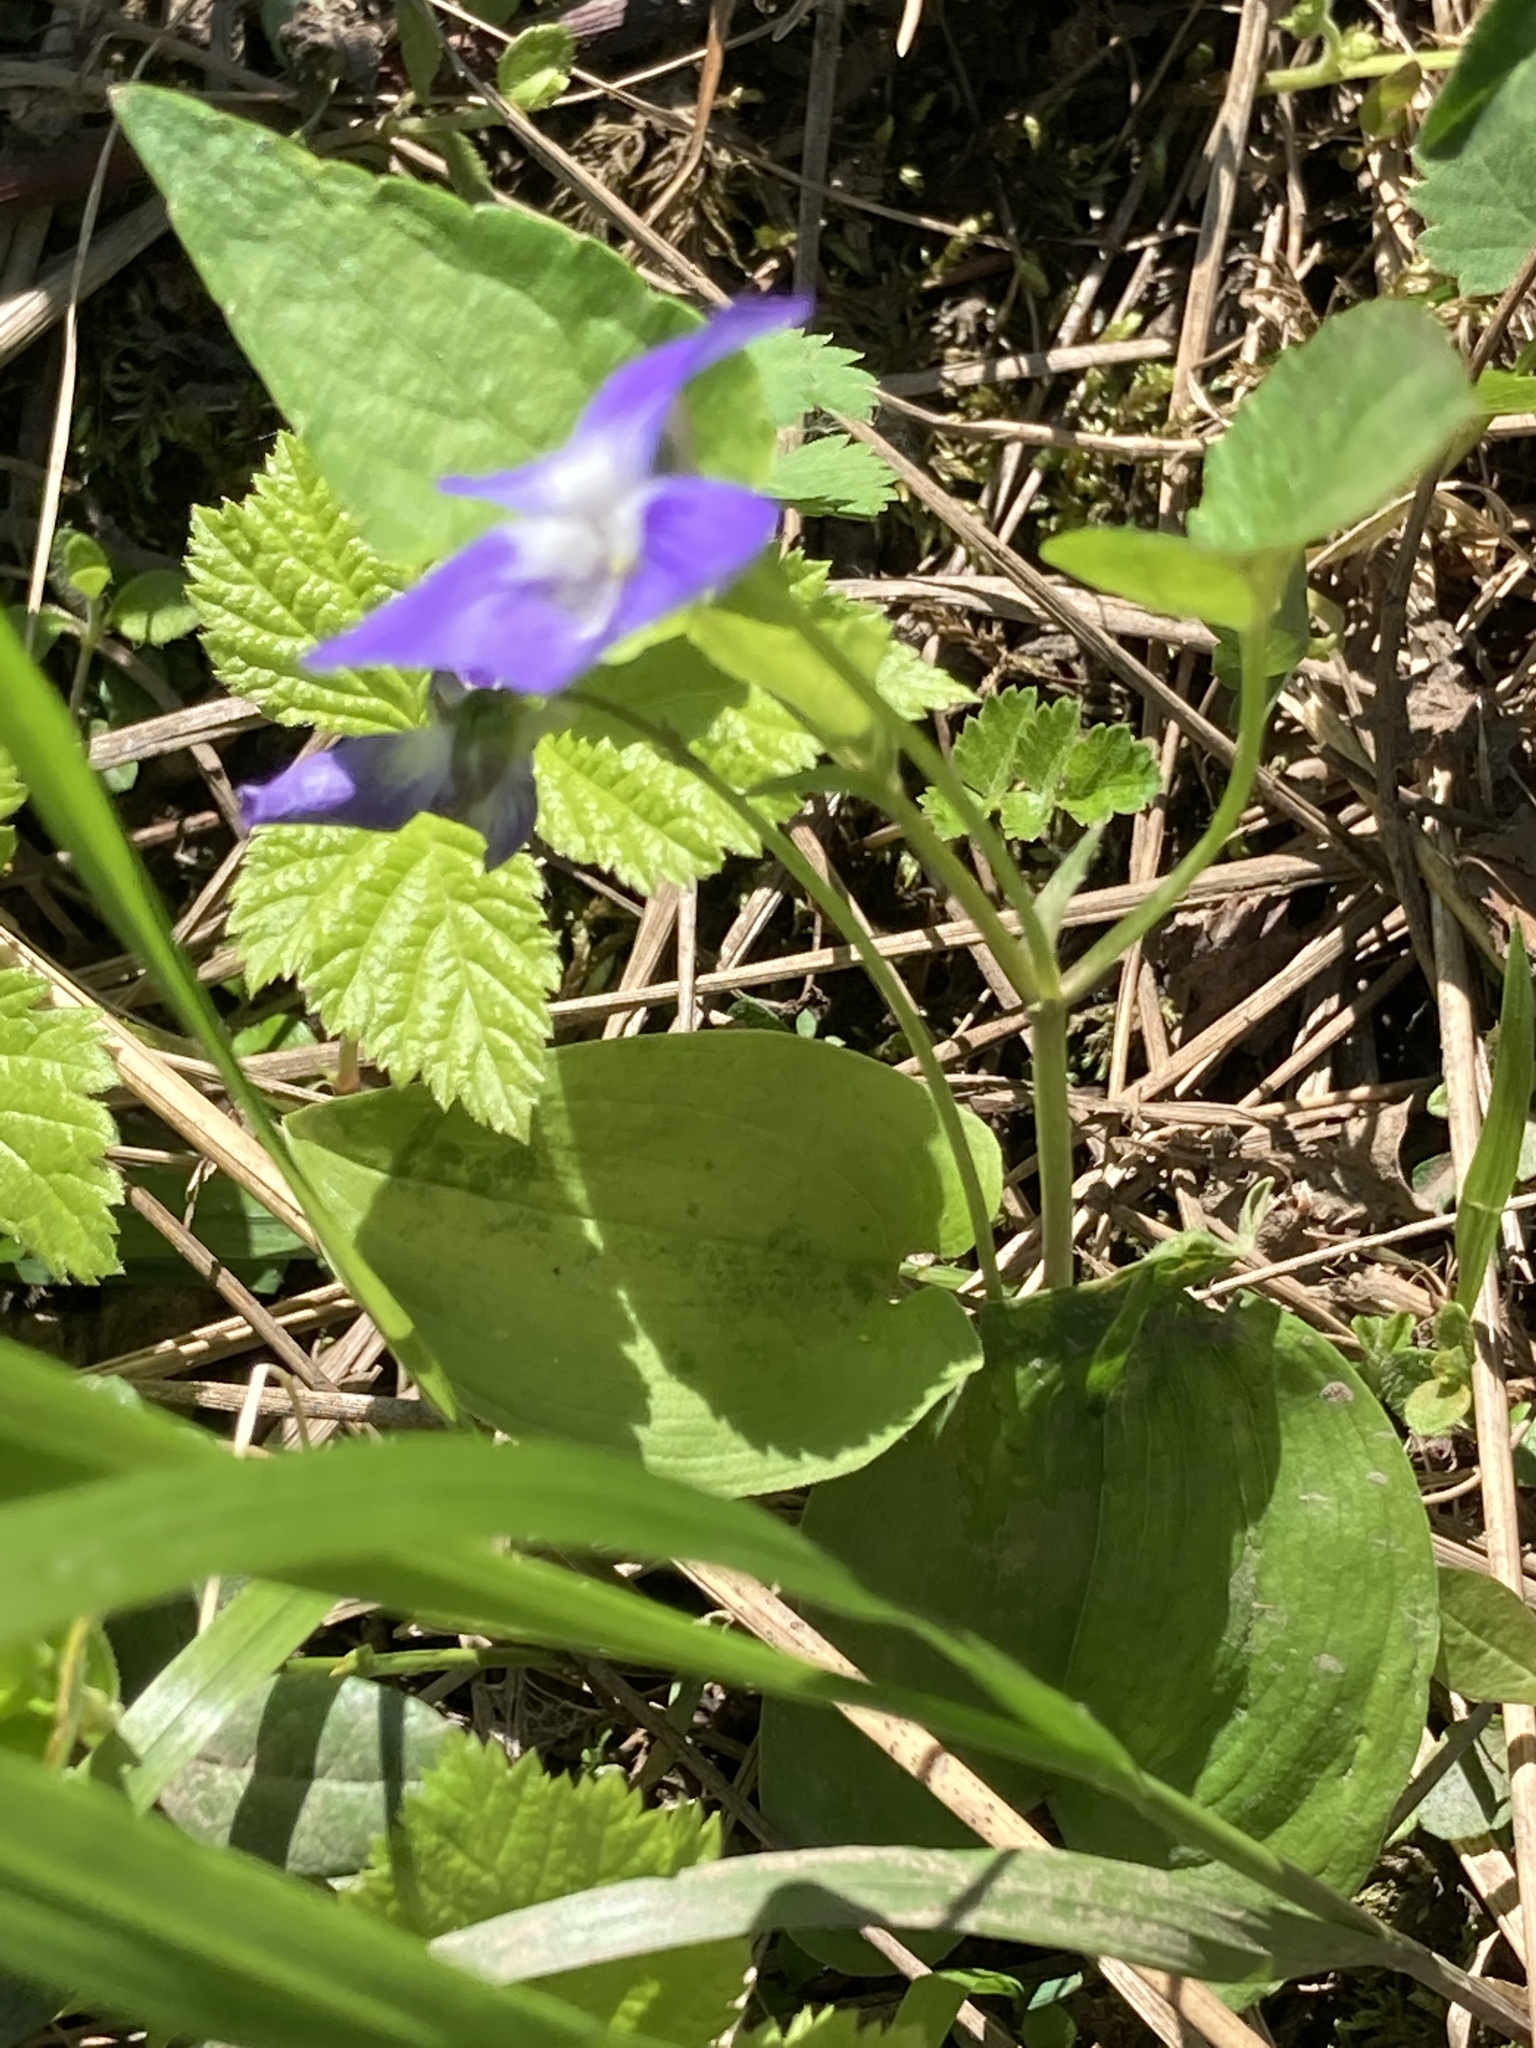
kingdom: Plantae
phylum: Tracheophyta
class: Magnoliopsida
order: Malpighiales
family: Violaceae
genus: Viola
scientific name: Viola canina
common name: Heath dog-violet
